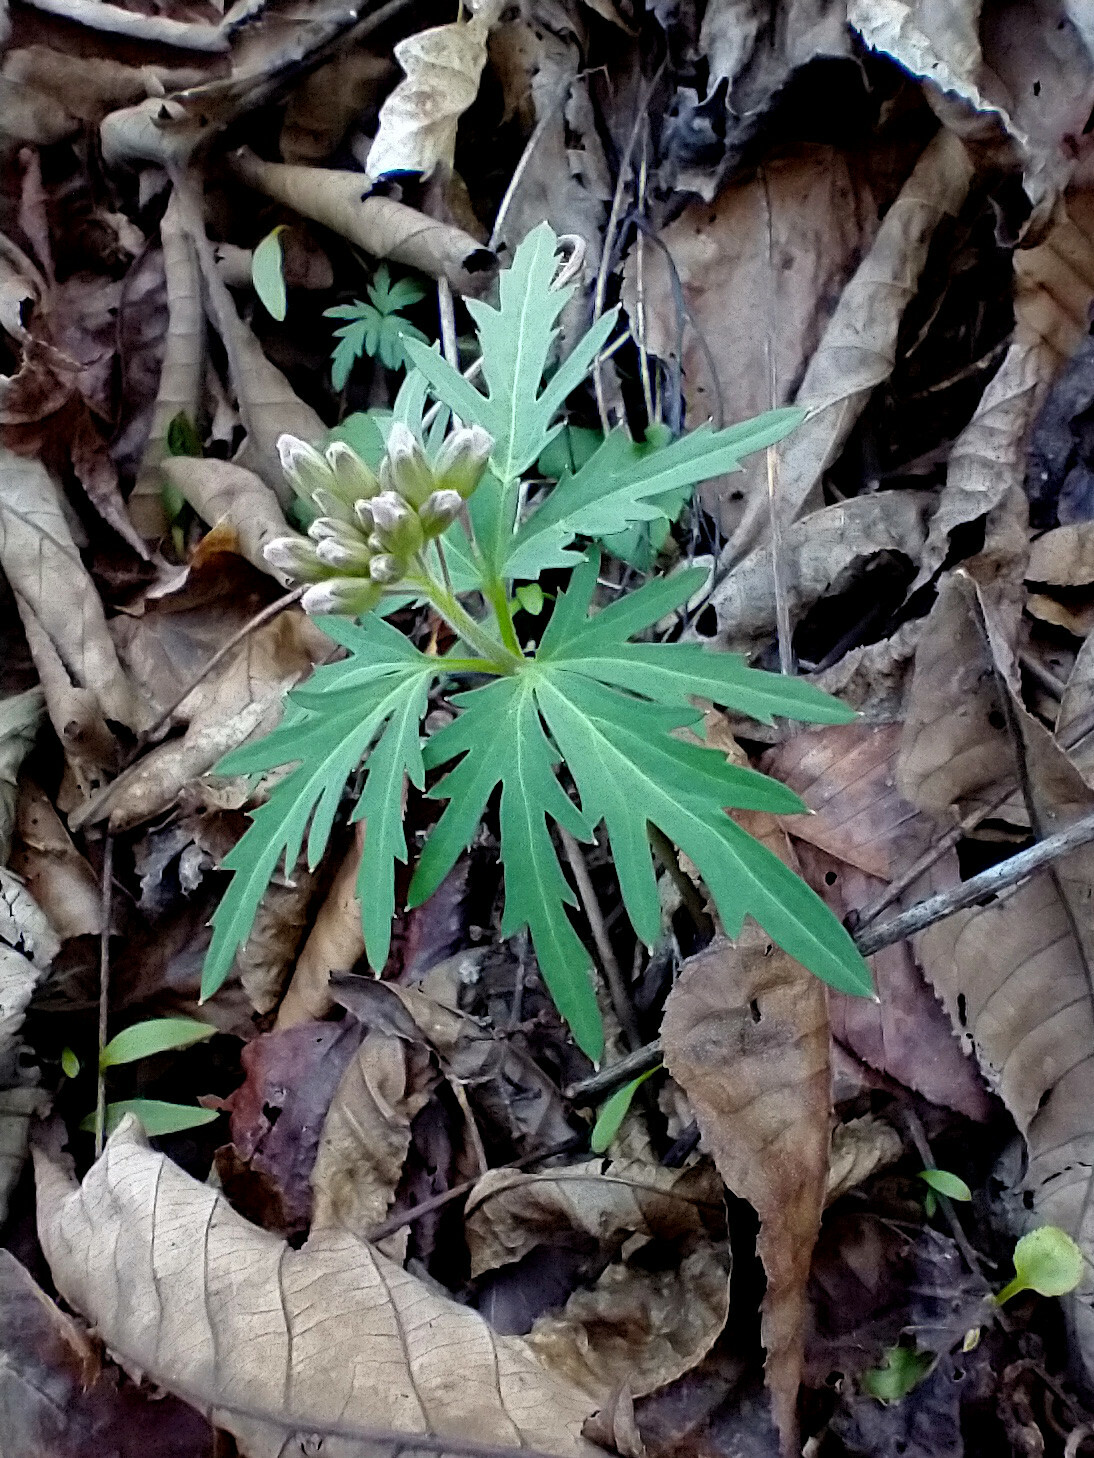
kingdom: Plantae
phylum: Tracheophyta
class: Magnoliopsida
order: Brassicales
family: Brassicaceae
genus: Cardamine
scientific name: Cardamine concatenata
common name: Cut-leaf toothcup
